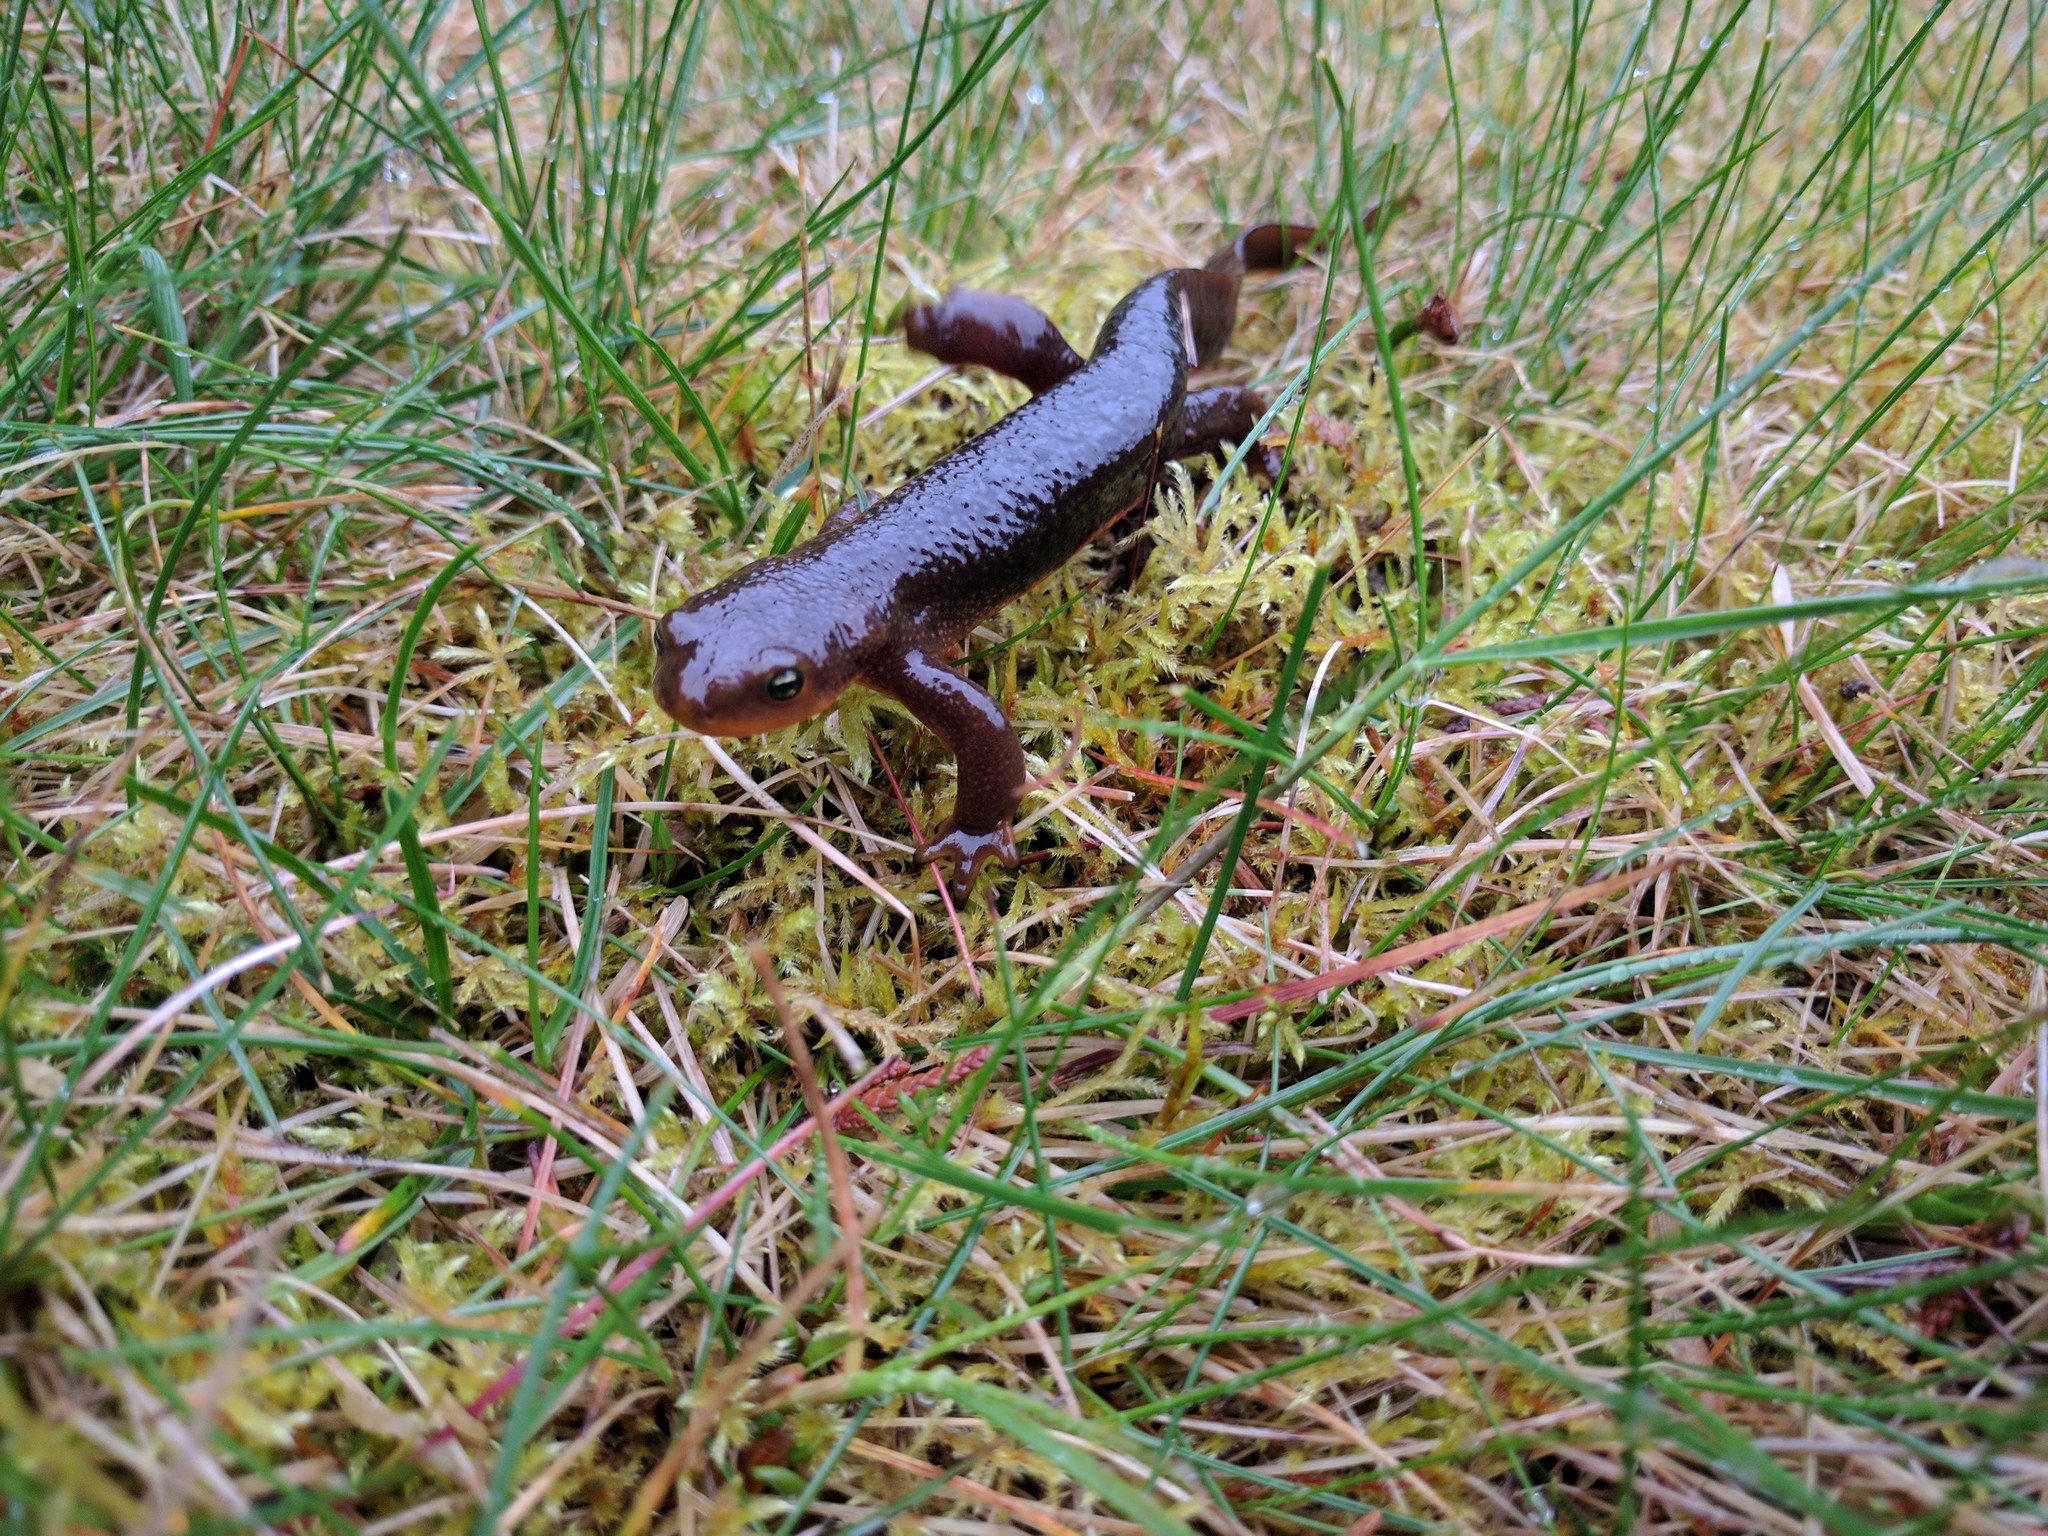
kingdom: Animalia
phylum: Chordata
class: Amphibia
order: Caudata
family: Salamandridae
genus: Taricha
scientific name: Taricha granulosa
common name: Roughskin newt
